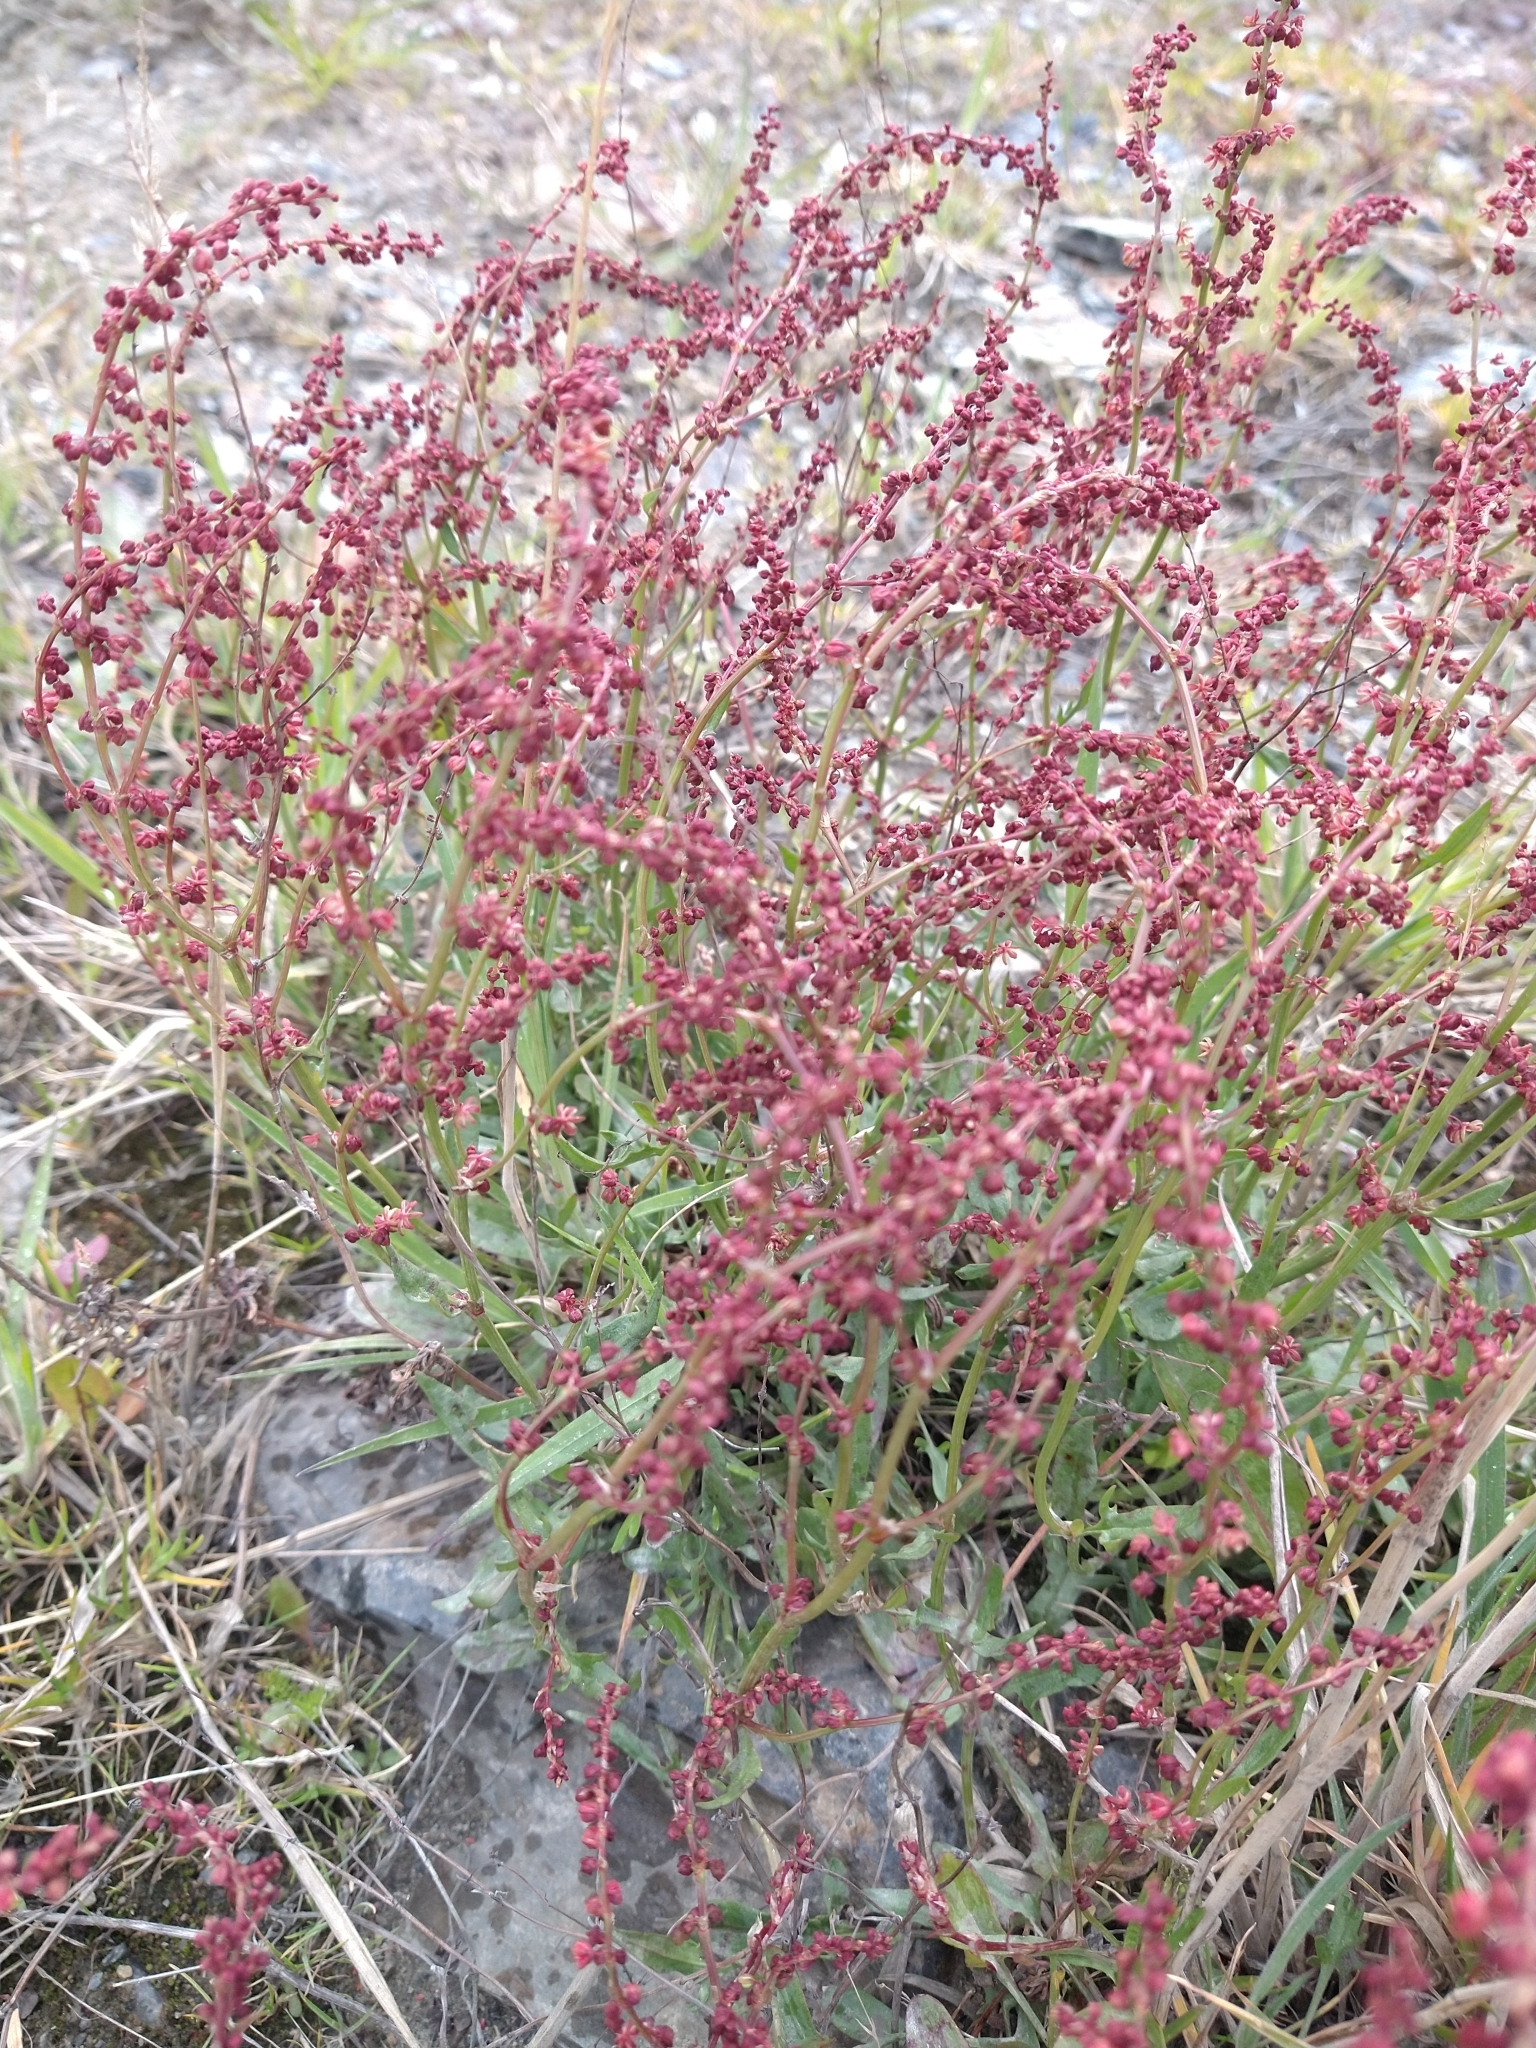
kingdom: Plantae
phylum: Tracheophyta
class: Magnoliopsida
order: Caryophyllales
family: Polygonaceae
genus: Rumex
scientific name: Rumex acetosella
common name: Common sheep sorrel
